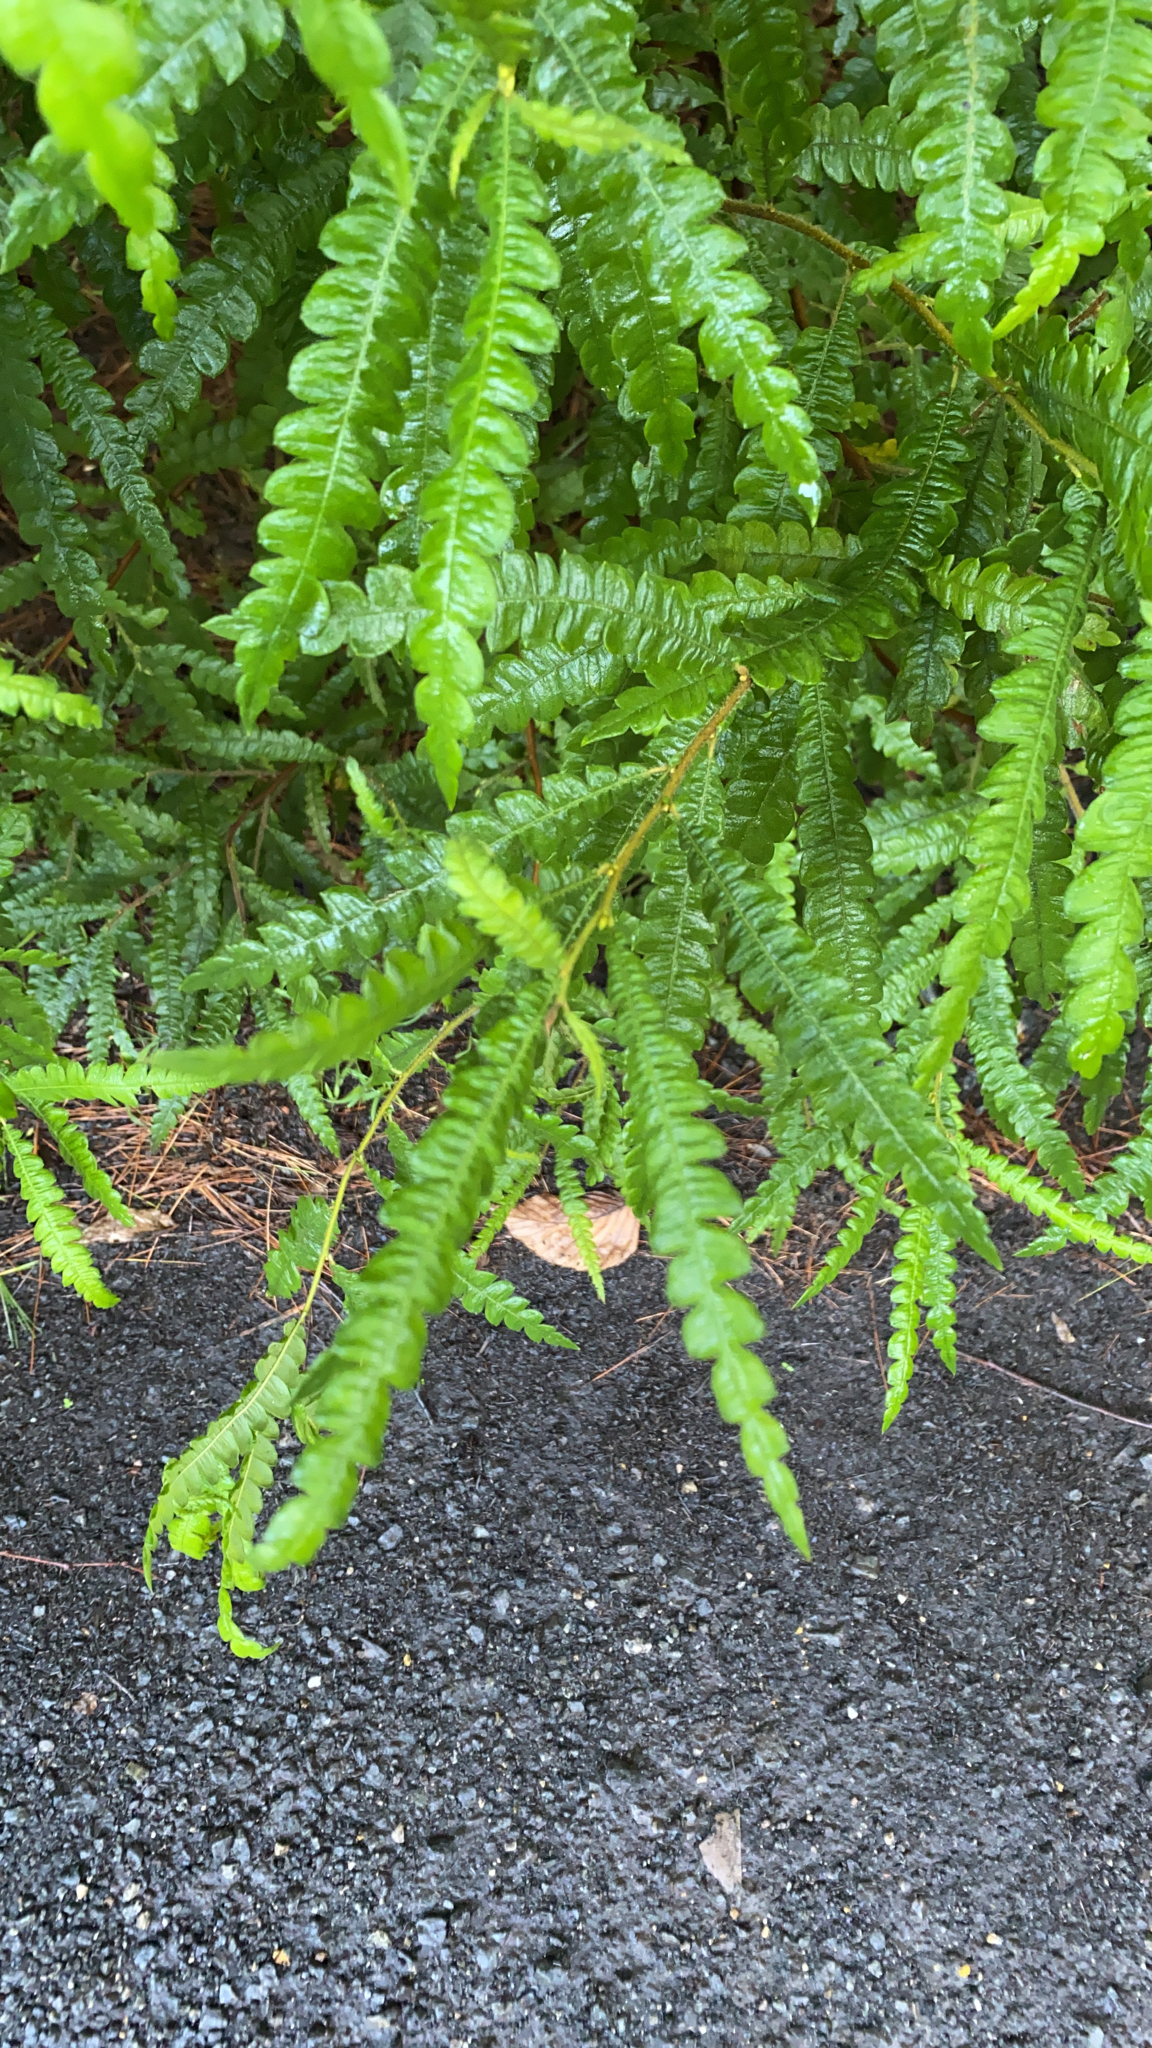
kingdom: Plantae
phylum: Tracheophyta
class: Magnoliopsida
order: Fagales
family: Myricaceae
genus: Comptonia
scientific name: Comptonia peregrina
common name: Sweet-fern
